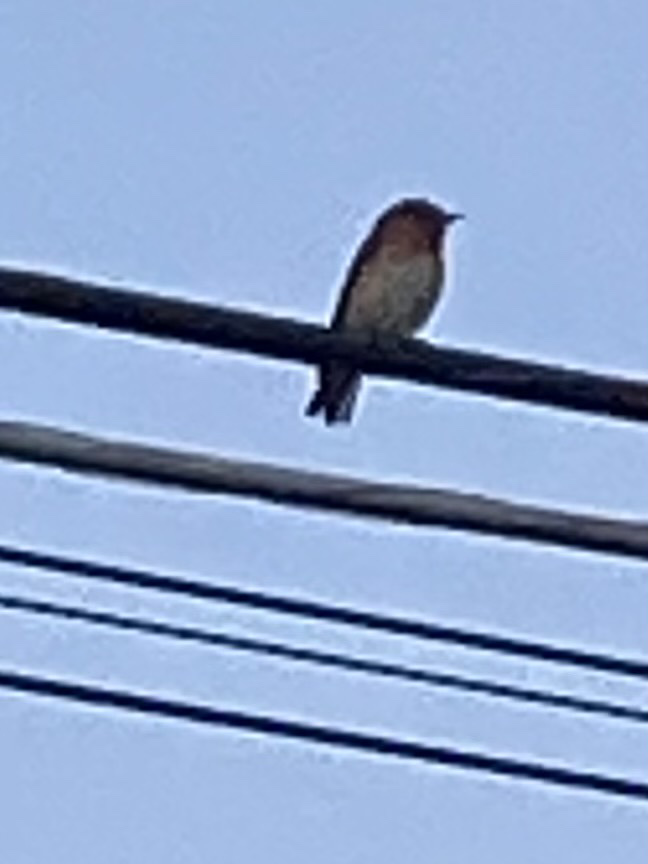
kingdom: Animalia
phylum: Chordata
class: Aves
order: Passeriformes
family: Turdidae
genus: Sialia
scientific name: Sialia sialis
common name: Eastern bluebird
